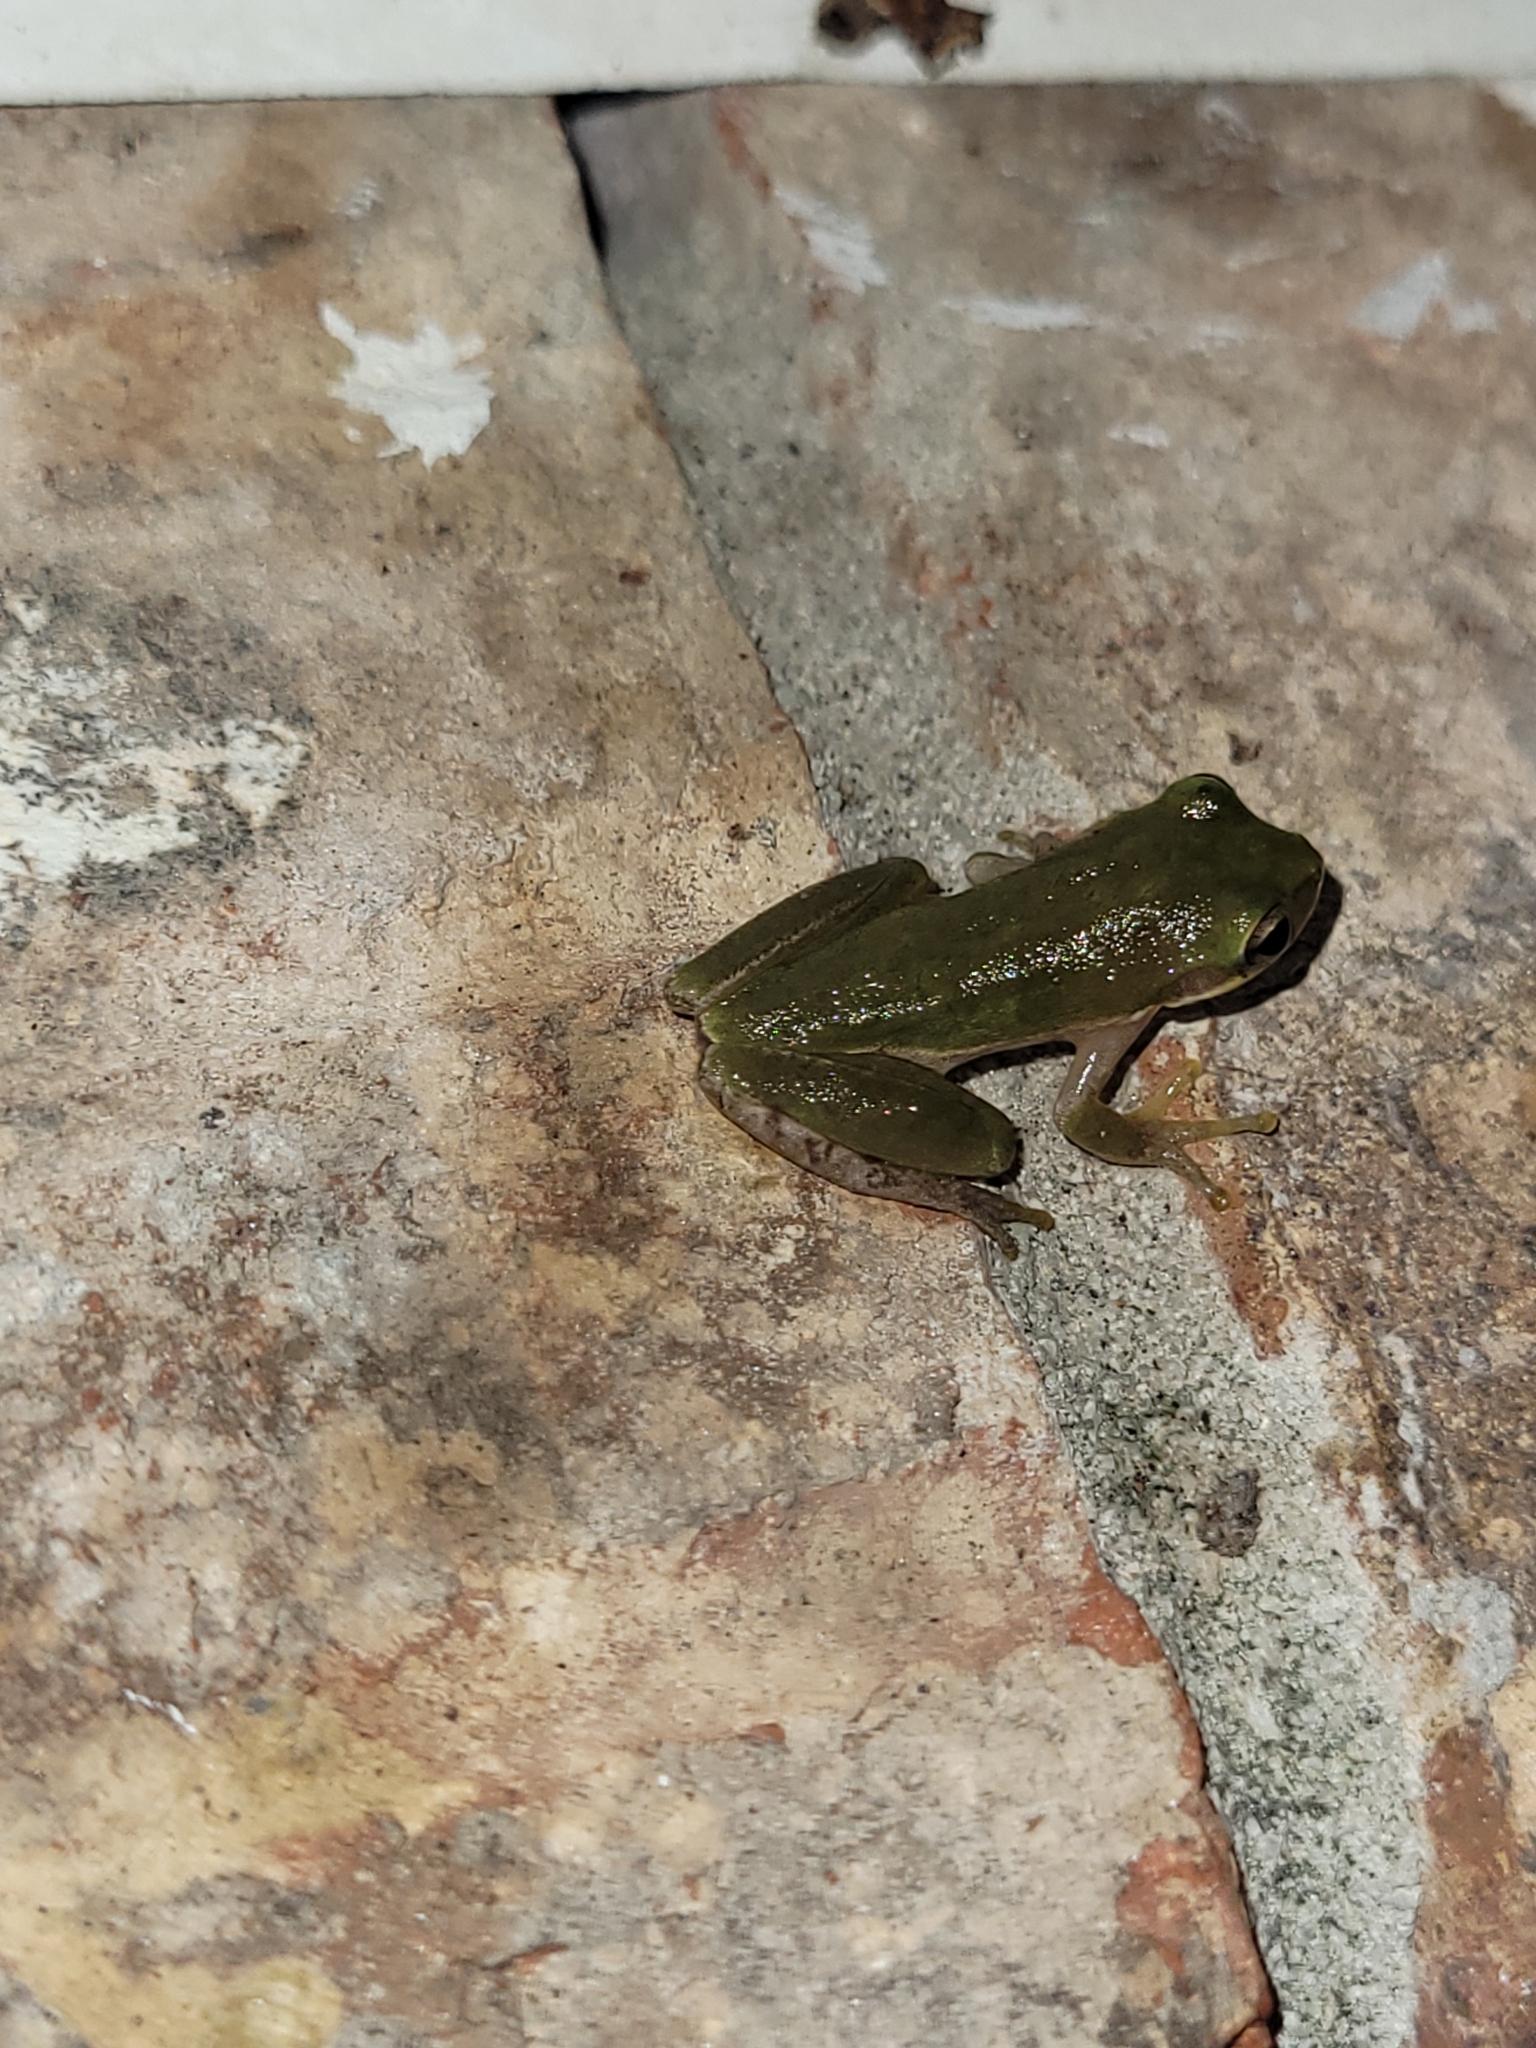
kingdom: Animalia
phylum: Chordata
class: Amphibia
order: Anura
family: Hylidae
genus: Dryophytes
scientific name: Dryophytes squirellus
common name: Squirrel treefrog
